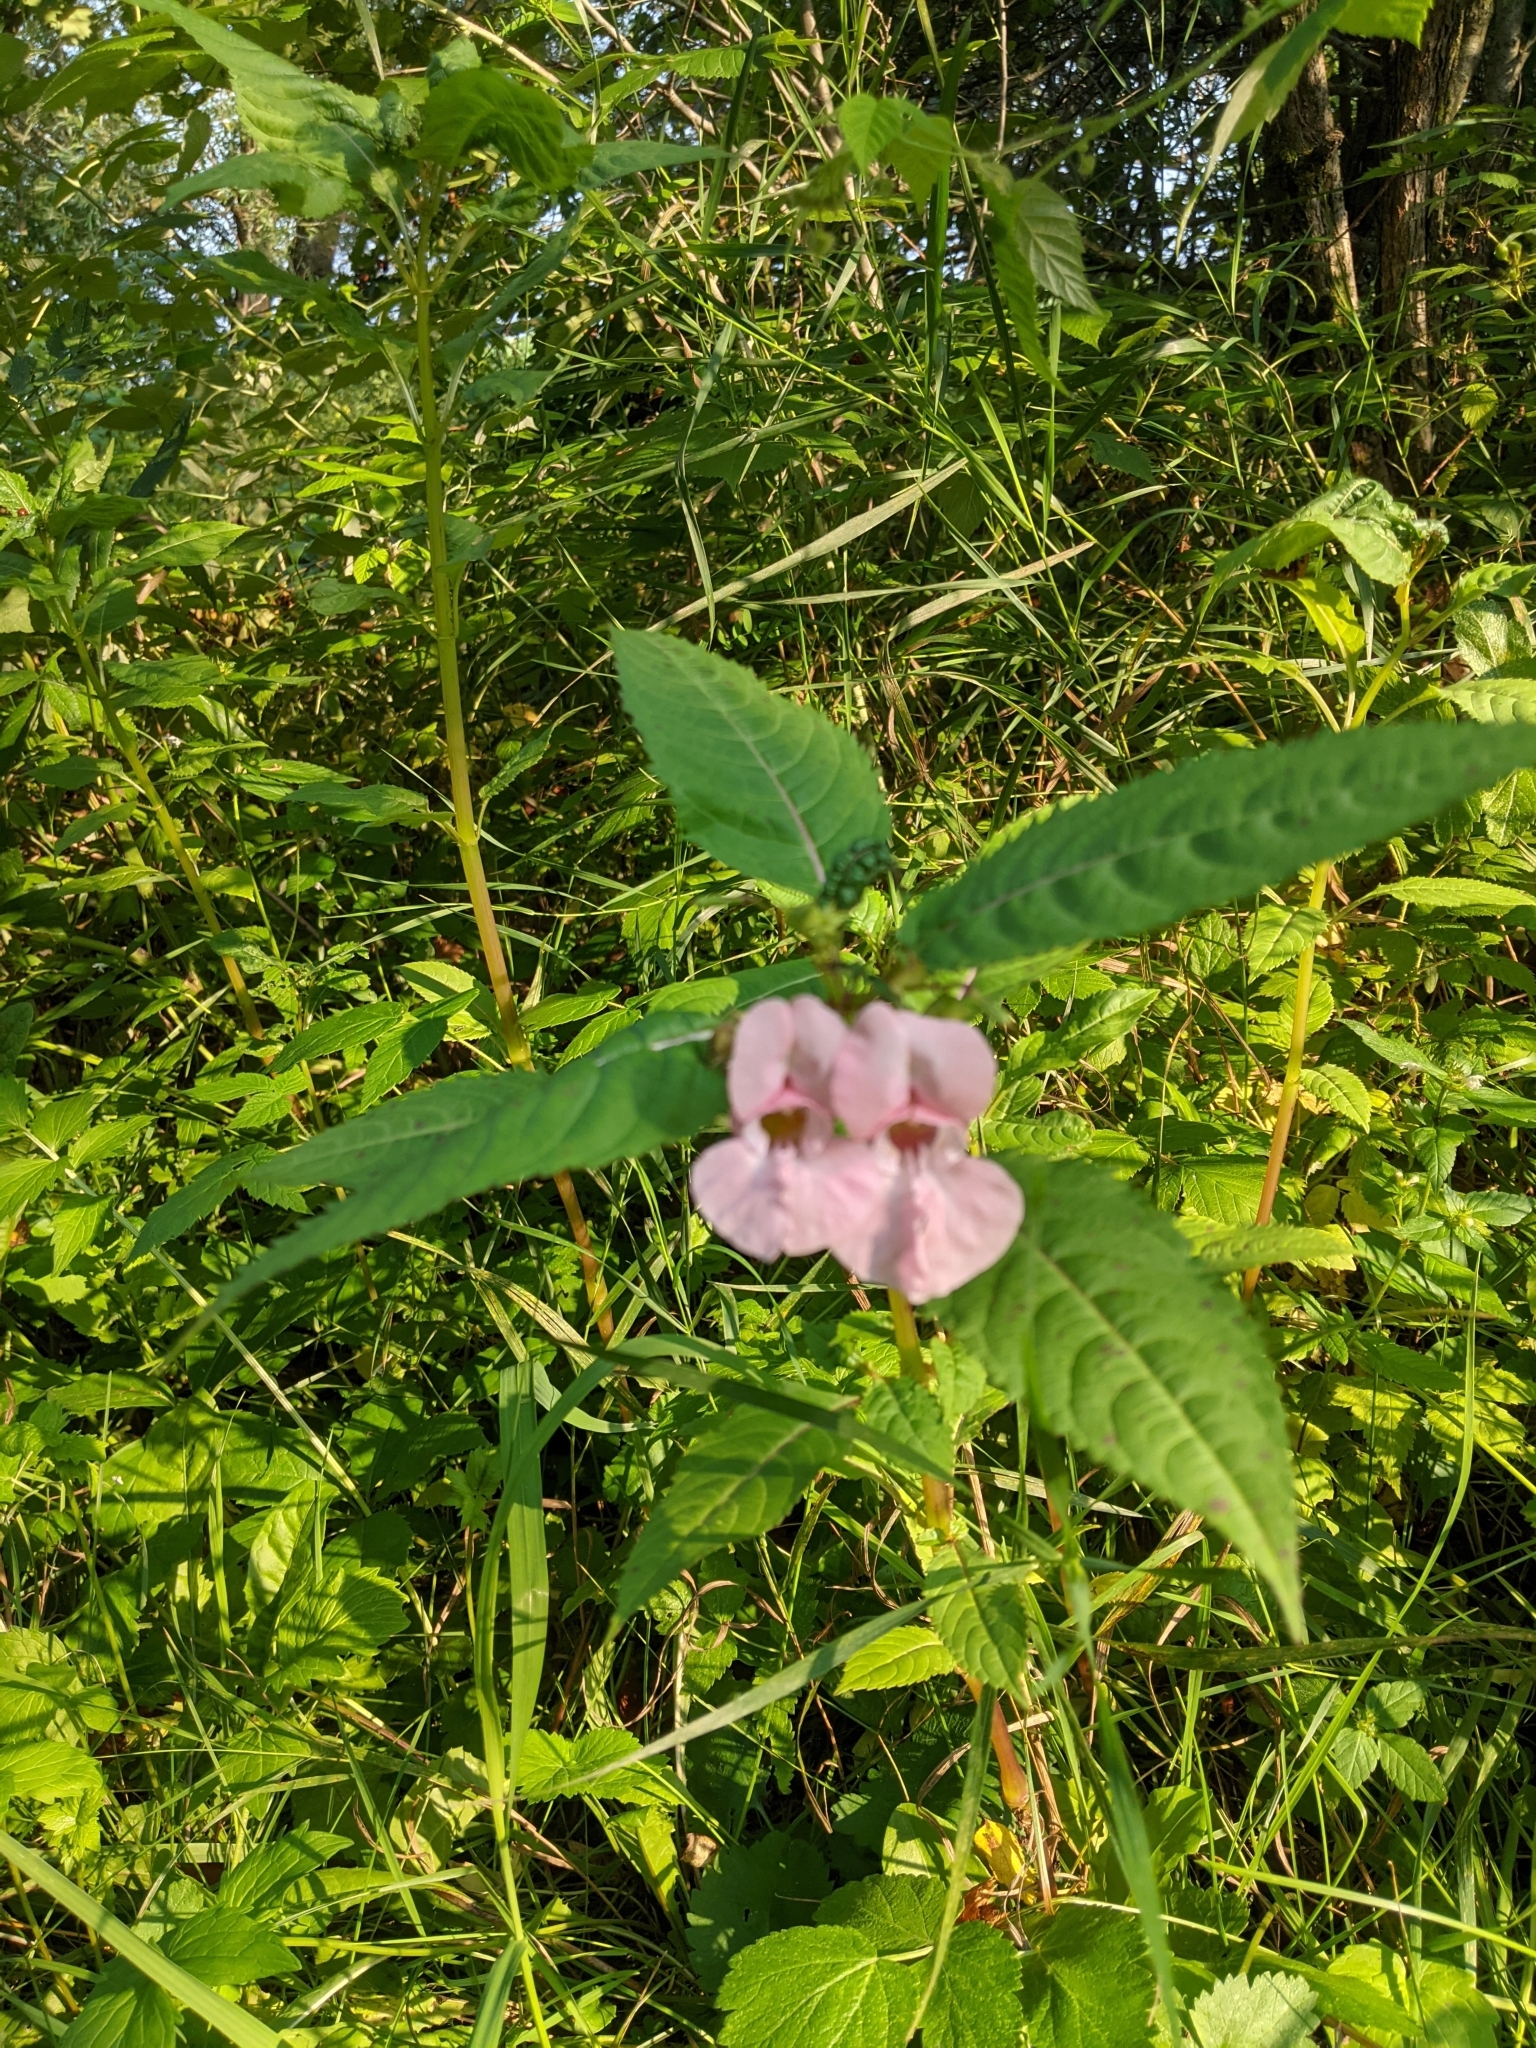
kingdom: Plantae
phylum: Tracheophyta
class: Magnoliopsida
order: Ericales
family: Balsaminaceae
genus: Impatiens
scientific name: Impatiens glandulifera
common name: Himalayan balsam
